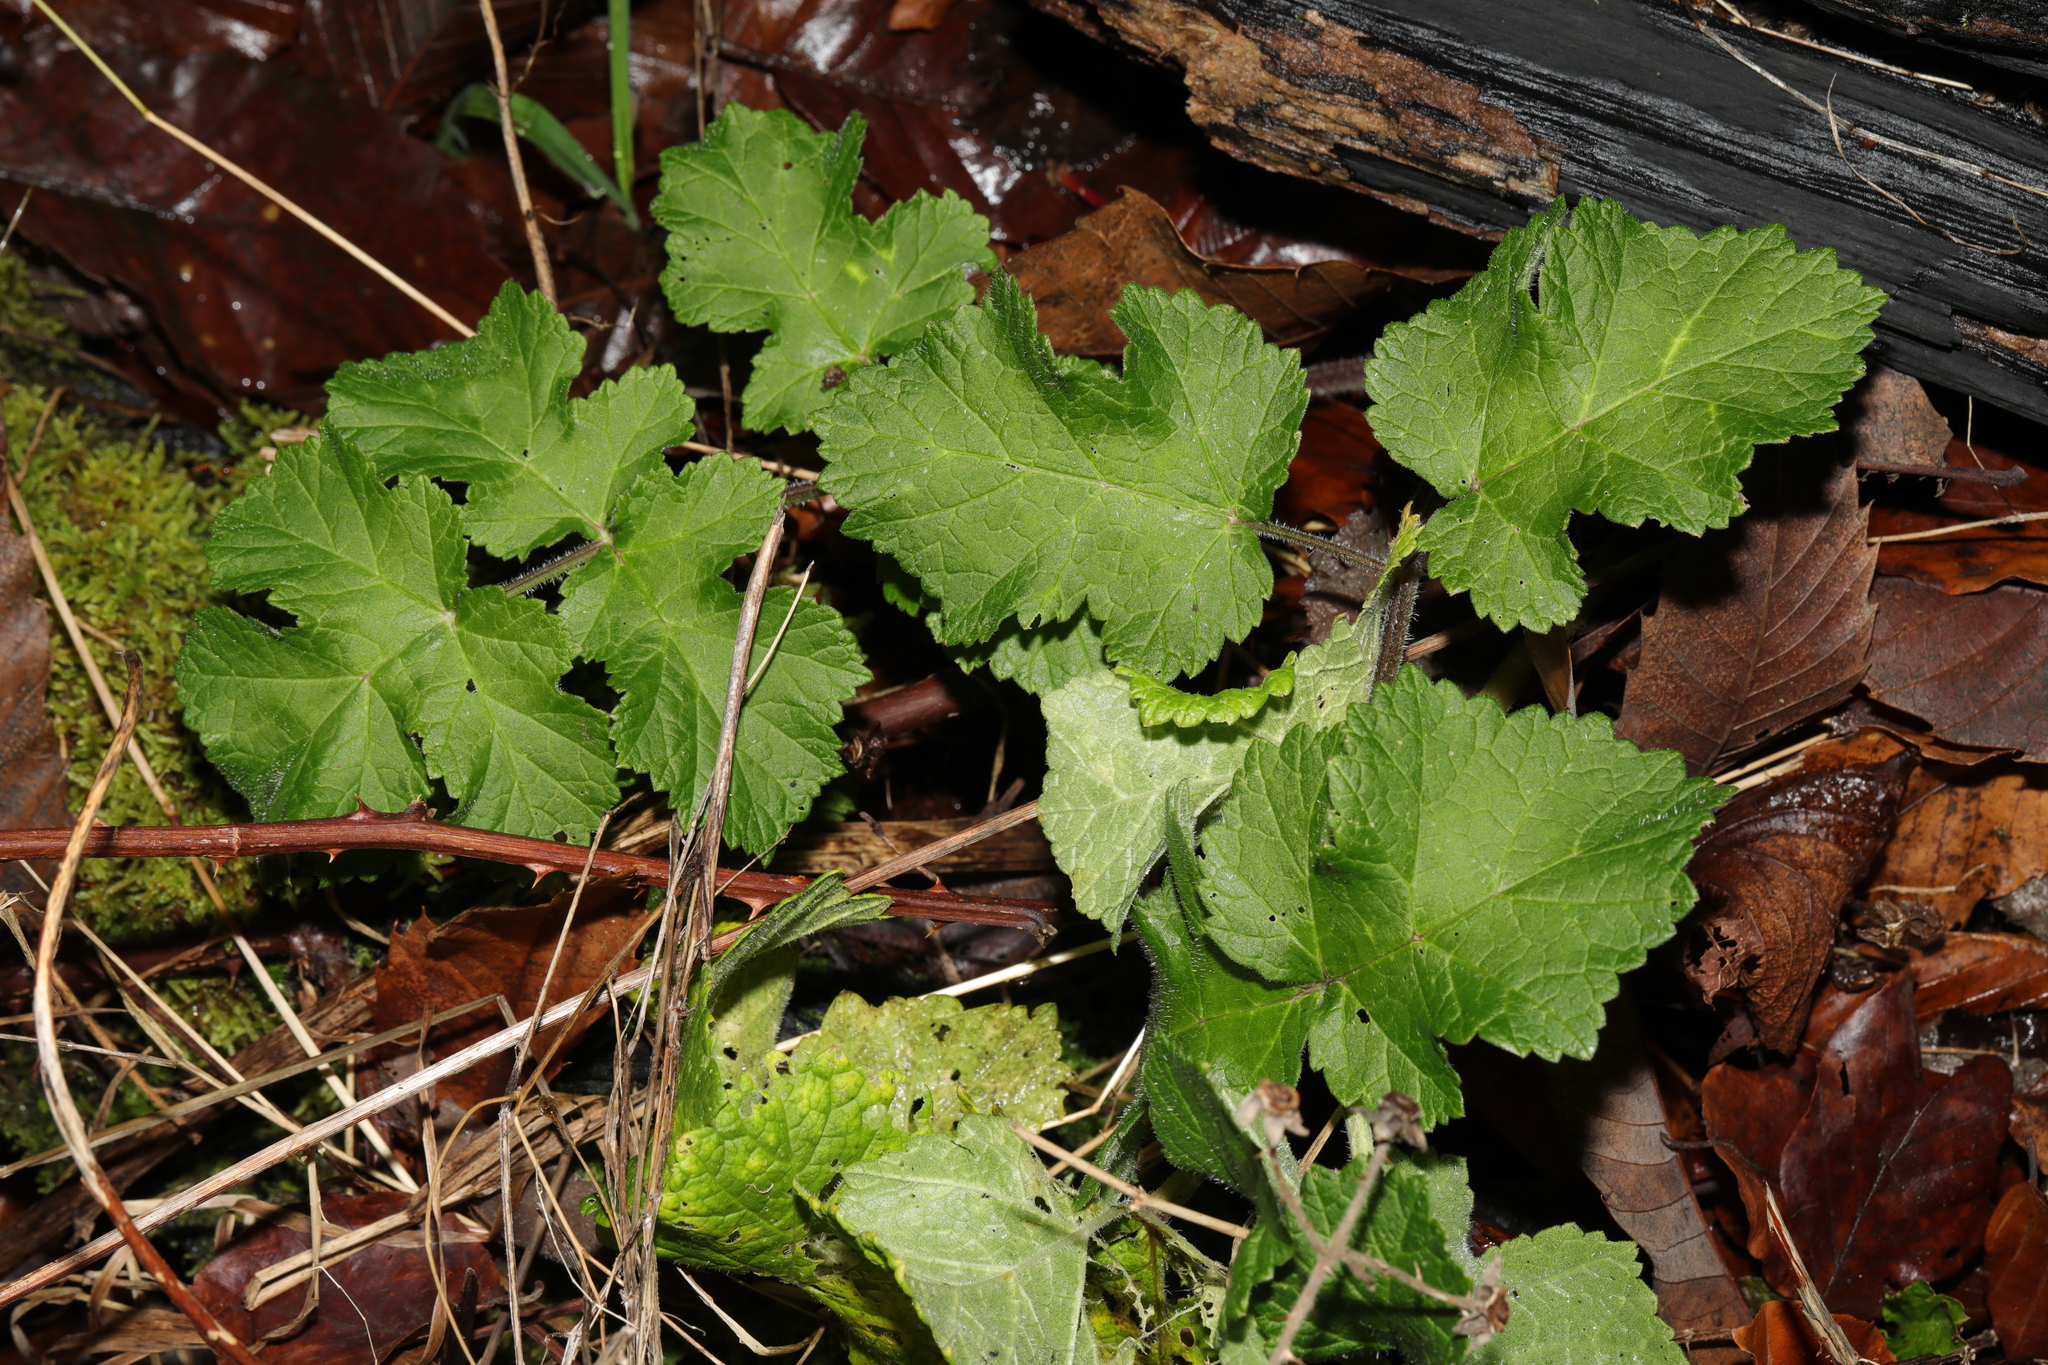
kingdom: Plantae
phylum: Tracheophyta
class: Magnoliopsida
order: Apiales
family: Apiaceae
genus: Heracleum
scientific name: Heracleum sphondylium
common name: Hogweed
